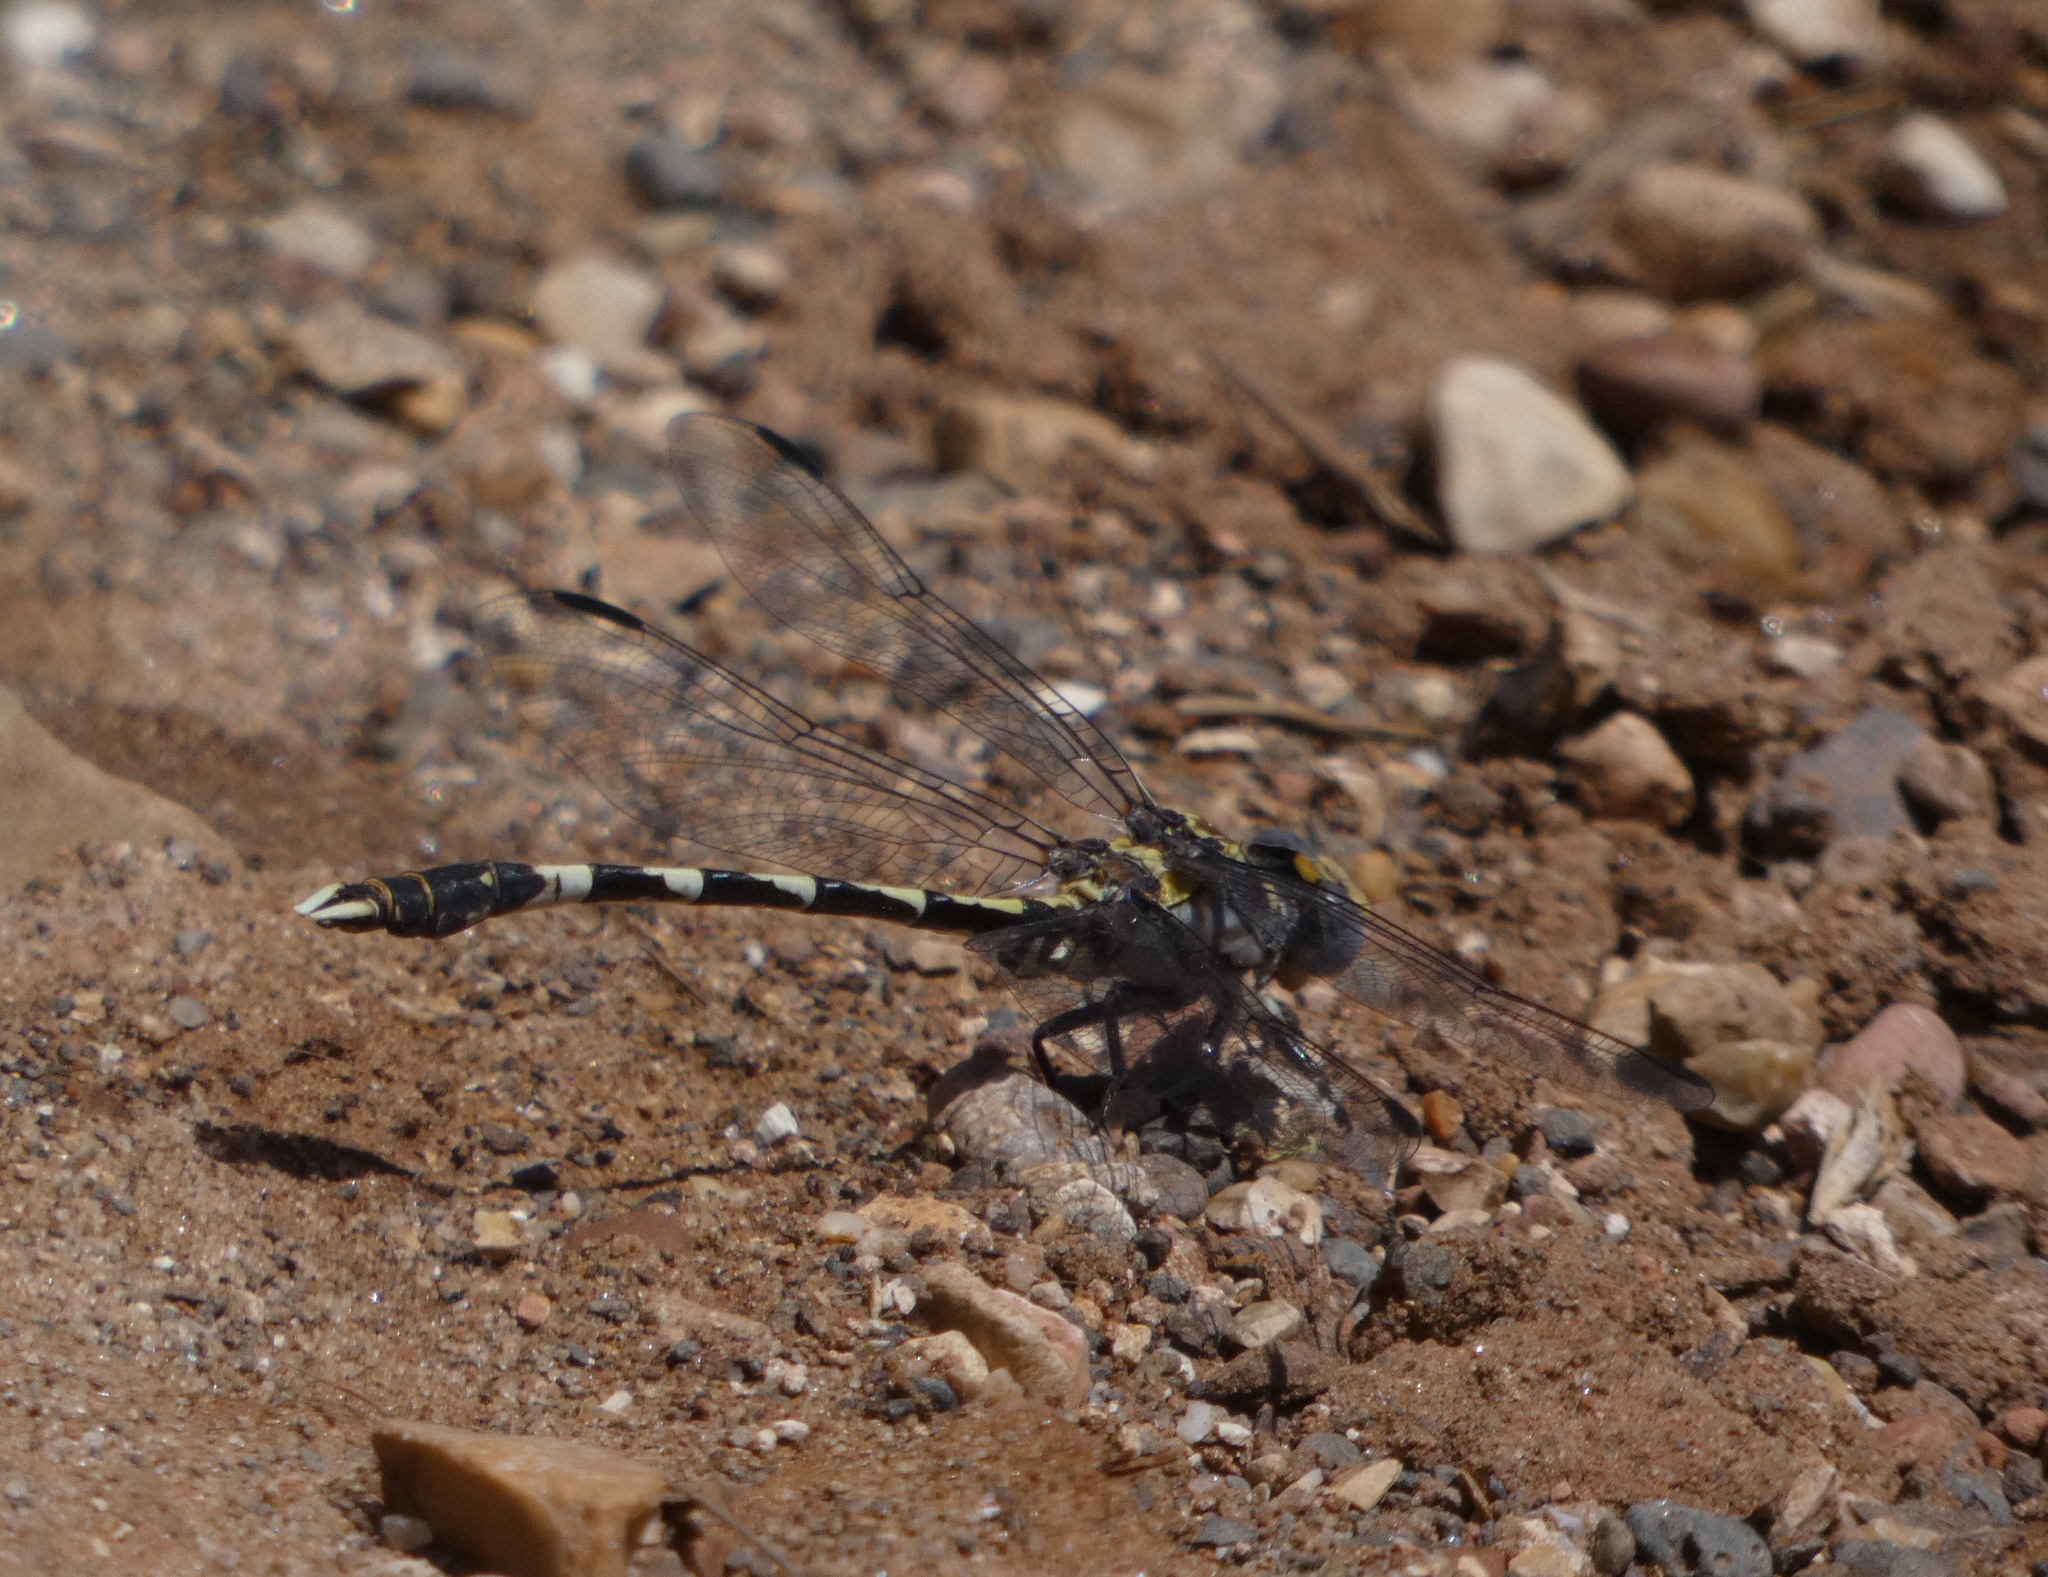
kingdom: Animalia
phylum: Arthropoda
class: Insecta
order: Odonata
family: Gomphidae
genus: Progomphus
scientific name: Progomphus borealis
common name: Gray sanddragon
